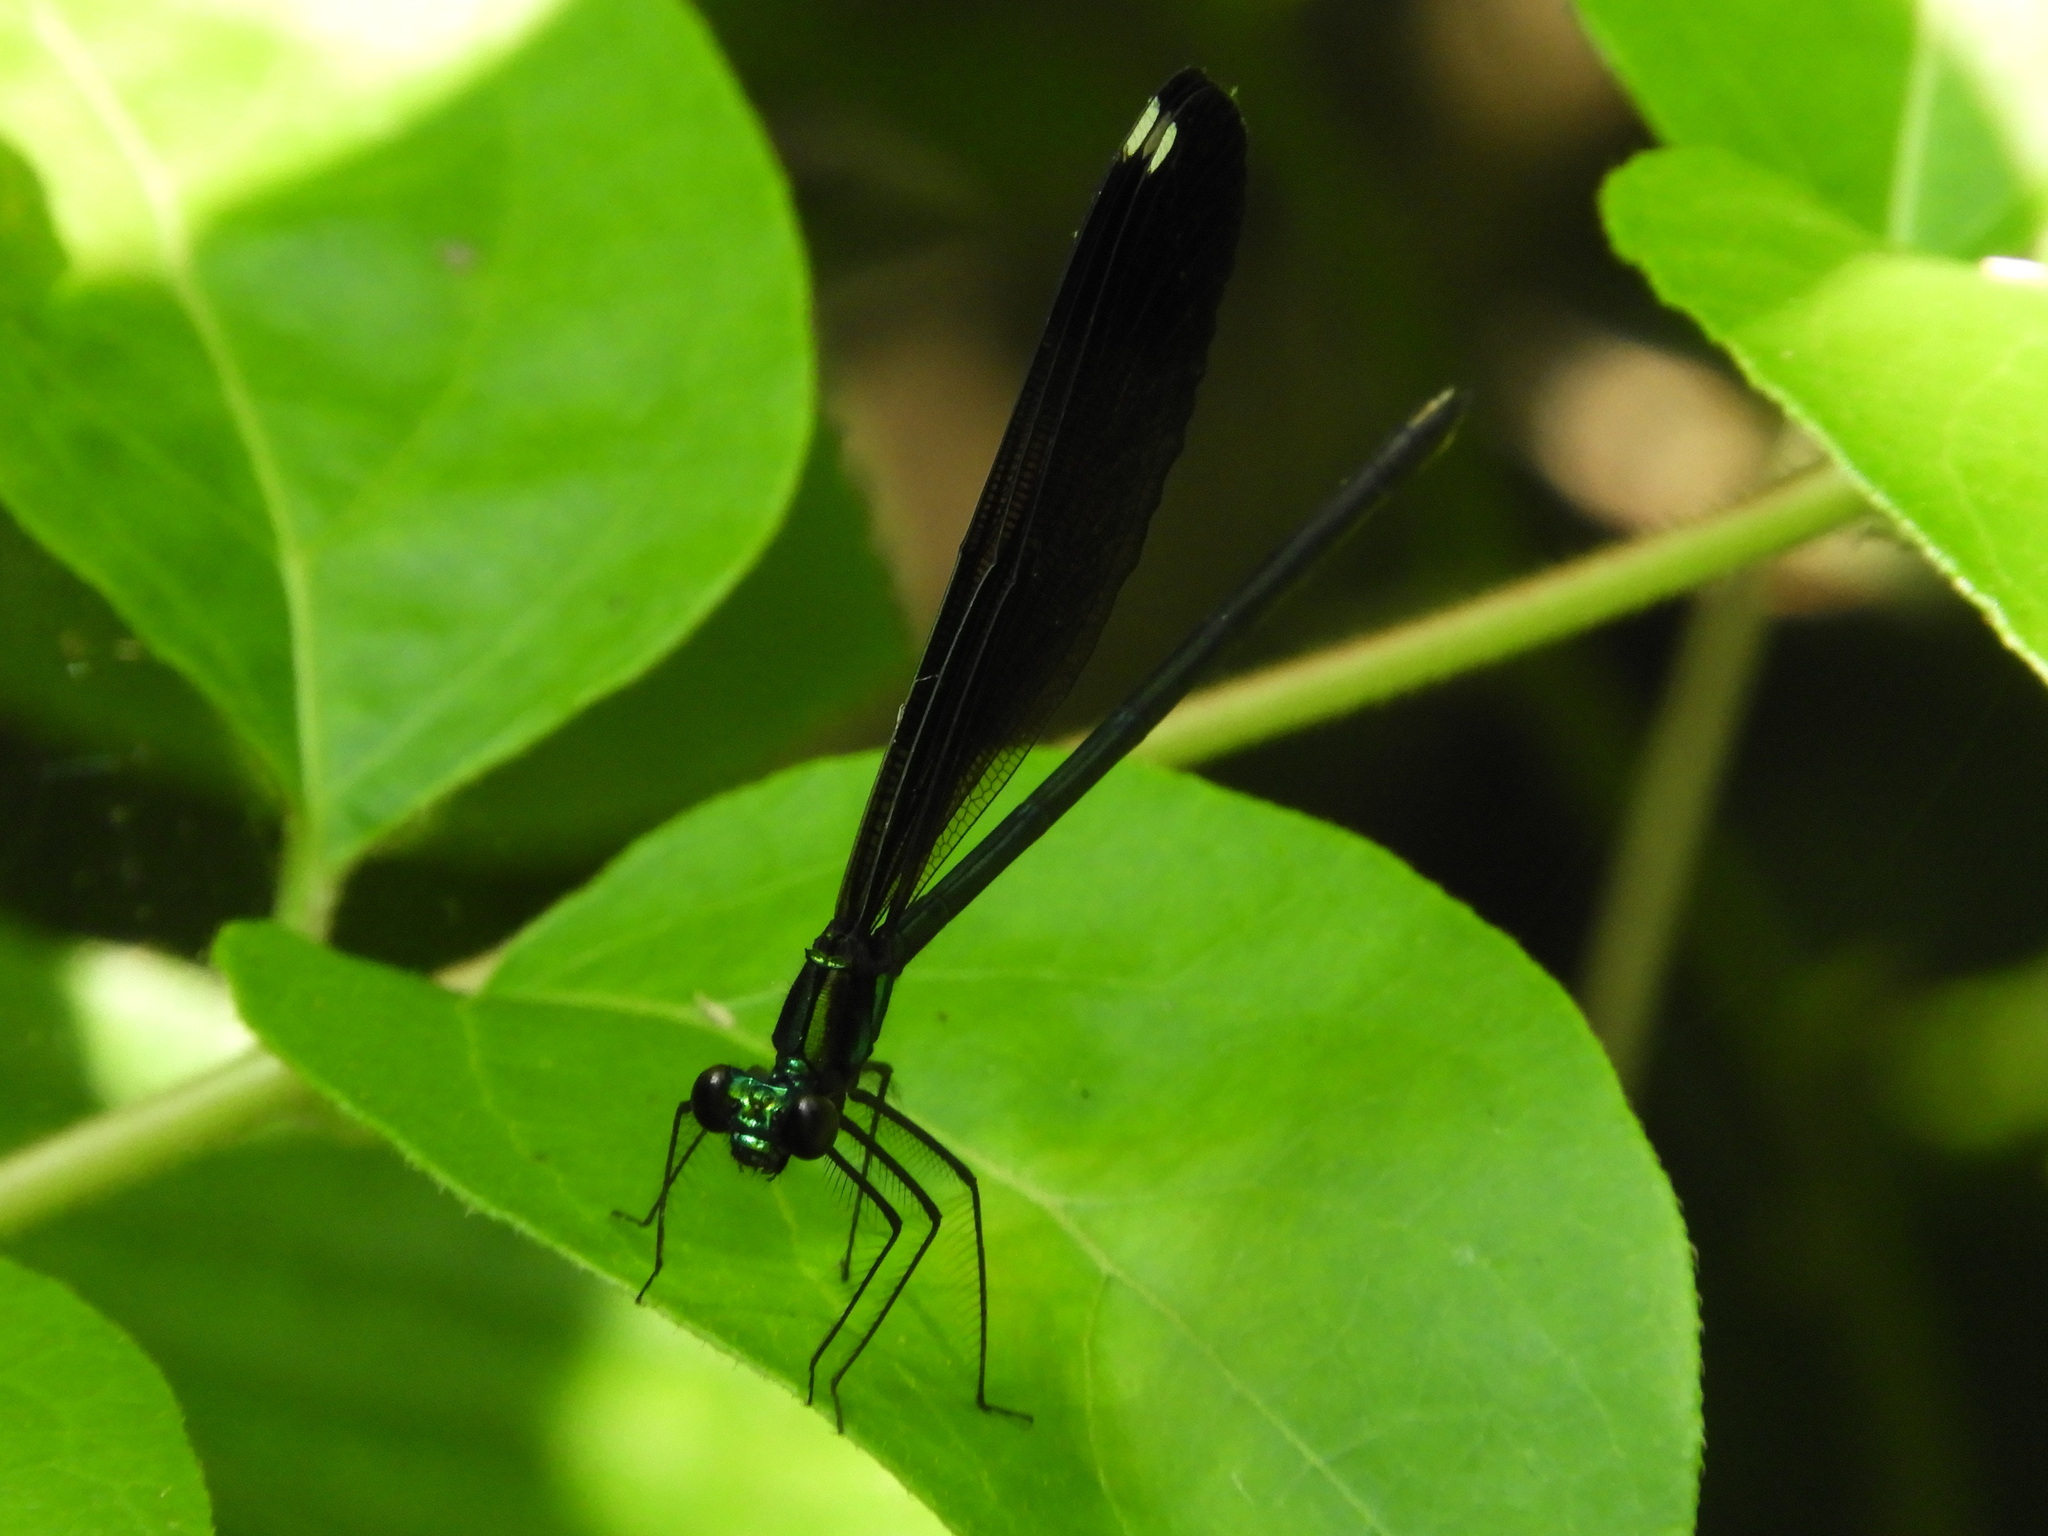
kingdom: Animalia
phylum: Arthropoda
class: Insecta
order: Odonata
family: Calopterygidae
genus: Calopteryx
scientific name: Calopteryx maculata
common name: Ebony jewelwing
